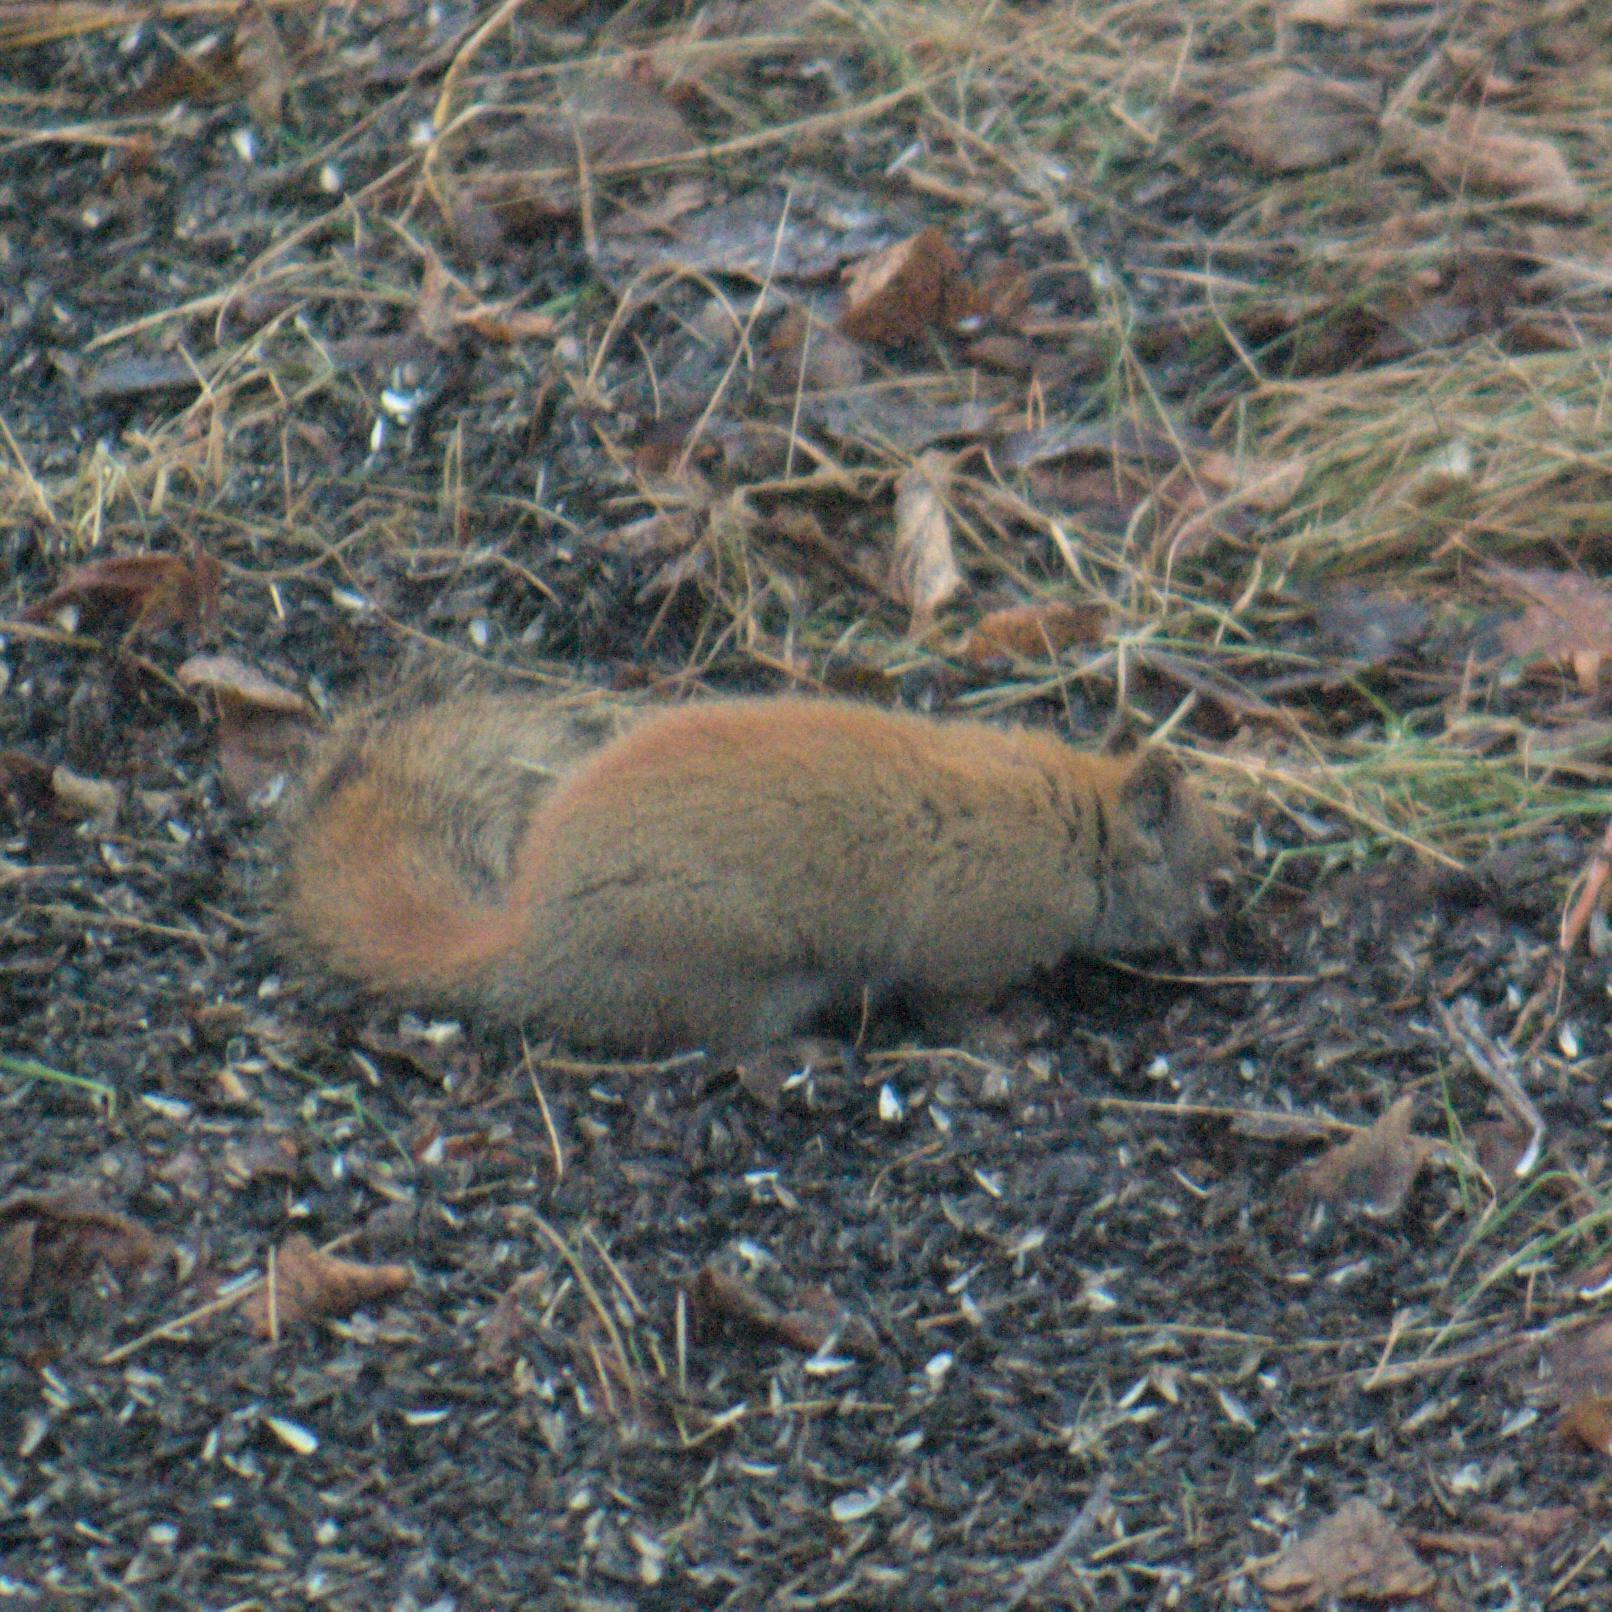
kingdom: Animalia
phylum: Chordata
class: Mammalia
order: Rodentia
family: Sciuridae
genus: Tamiasciurus
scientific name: Tamiasciurus hudsonicus
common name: Red squirrel
